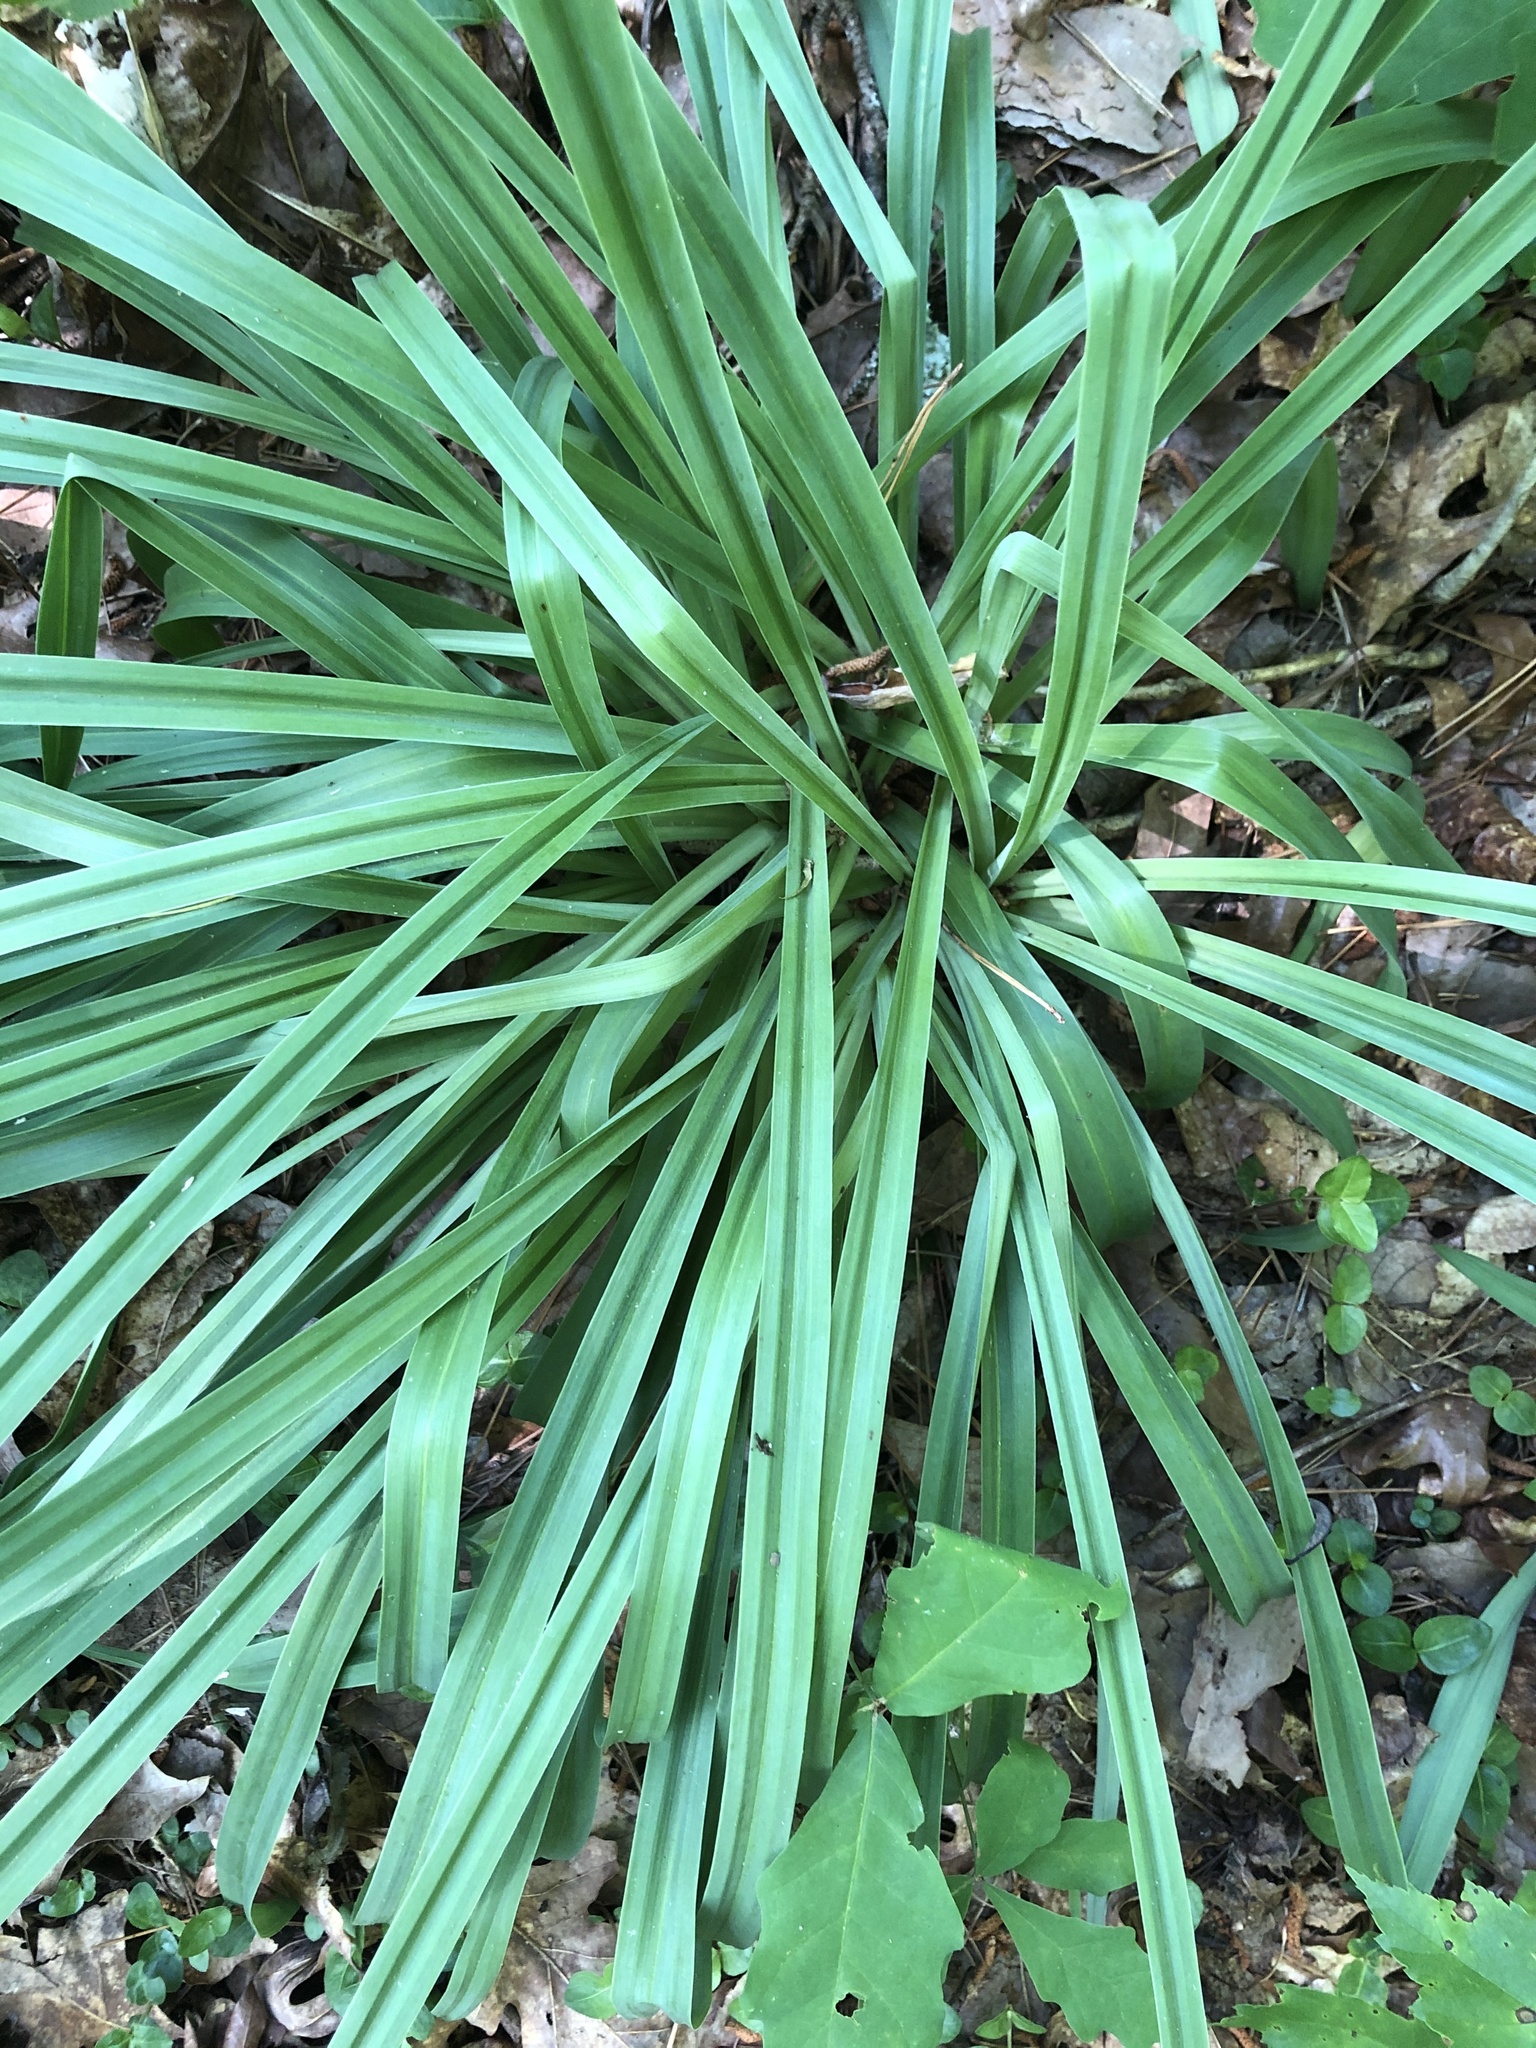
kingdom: Plantae
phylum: Tracheophyta
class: Liliopsida
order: Liliales
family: Melanthiaceae
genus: Amianthium
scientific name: Amianthium muscitoxicum
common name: Fly-poison
